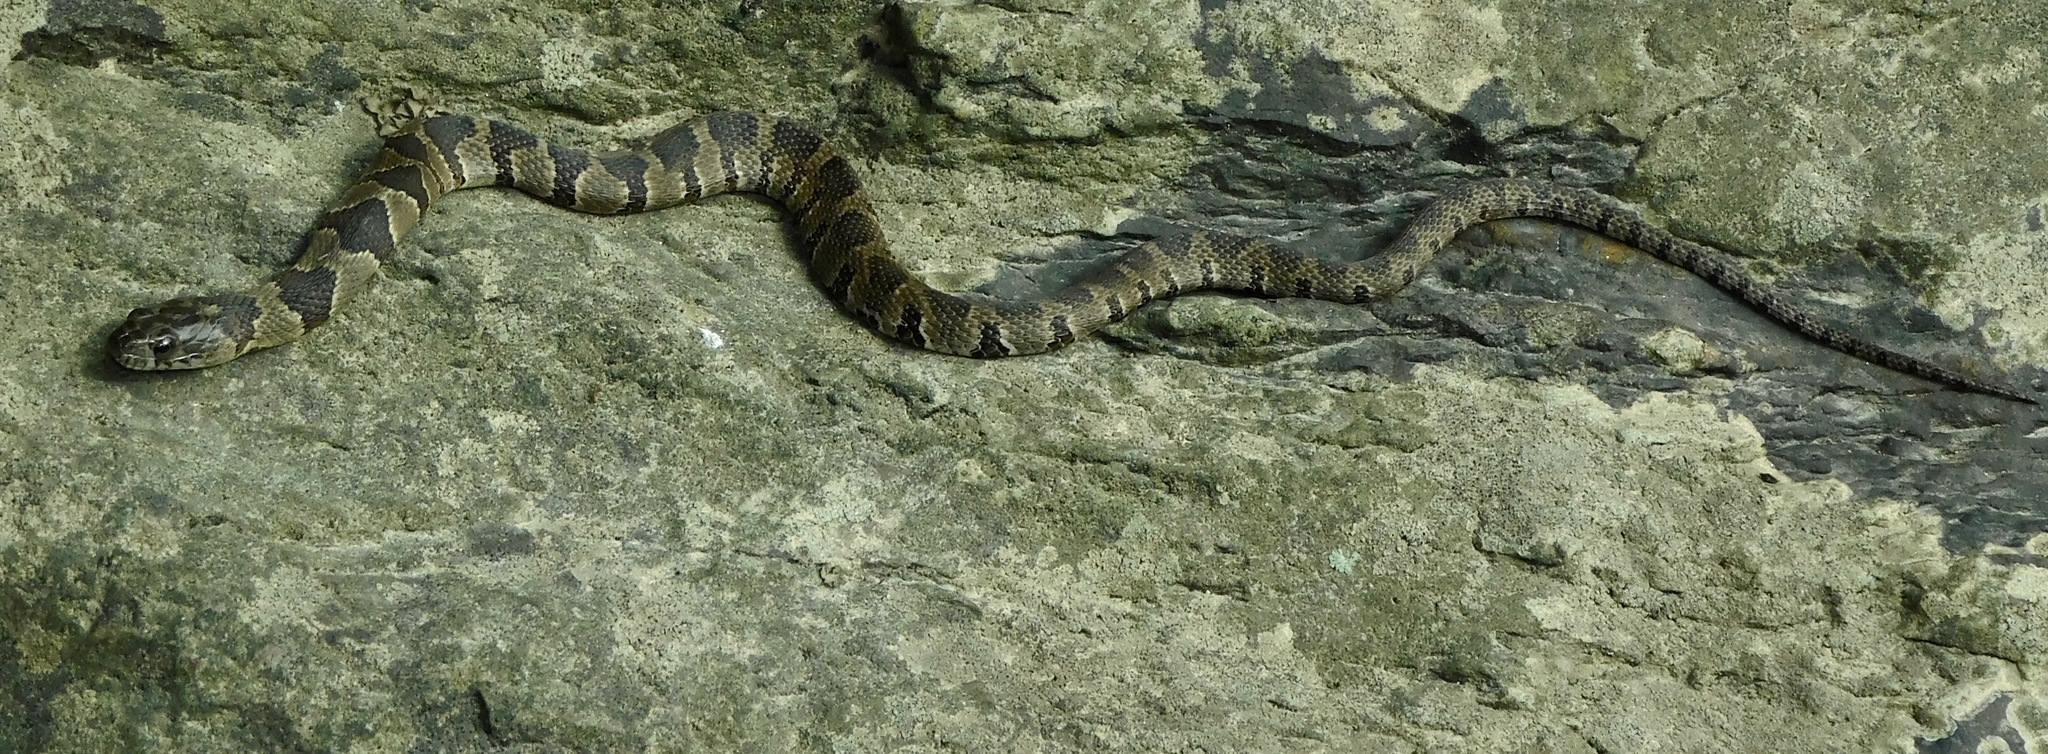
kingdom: Animalia
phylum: Chordata
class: Squamata
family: Colubridae
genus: Nerodia
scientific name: Nerodia sipedon
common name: Northern water snake
